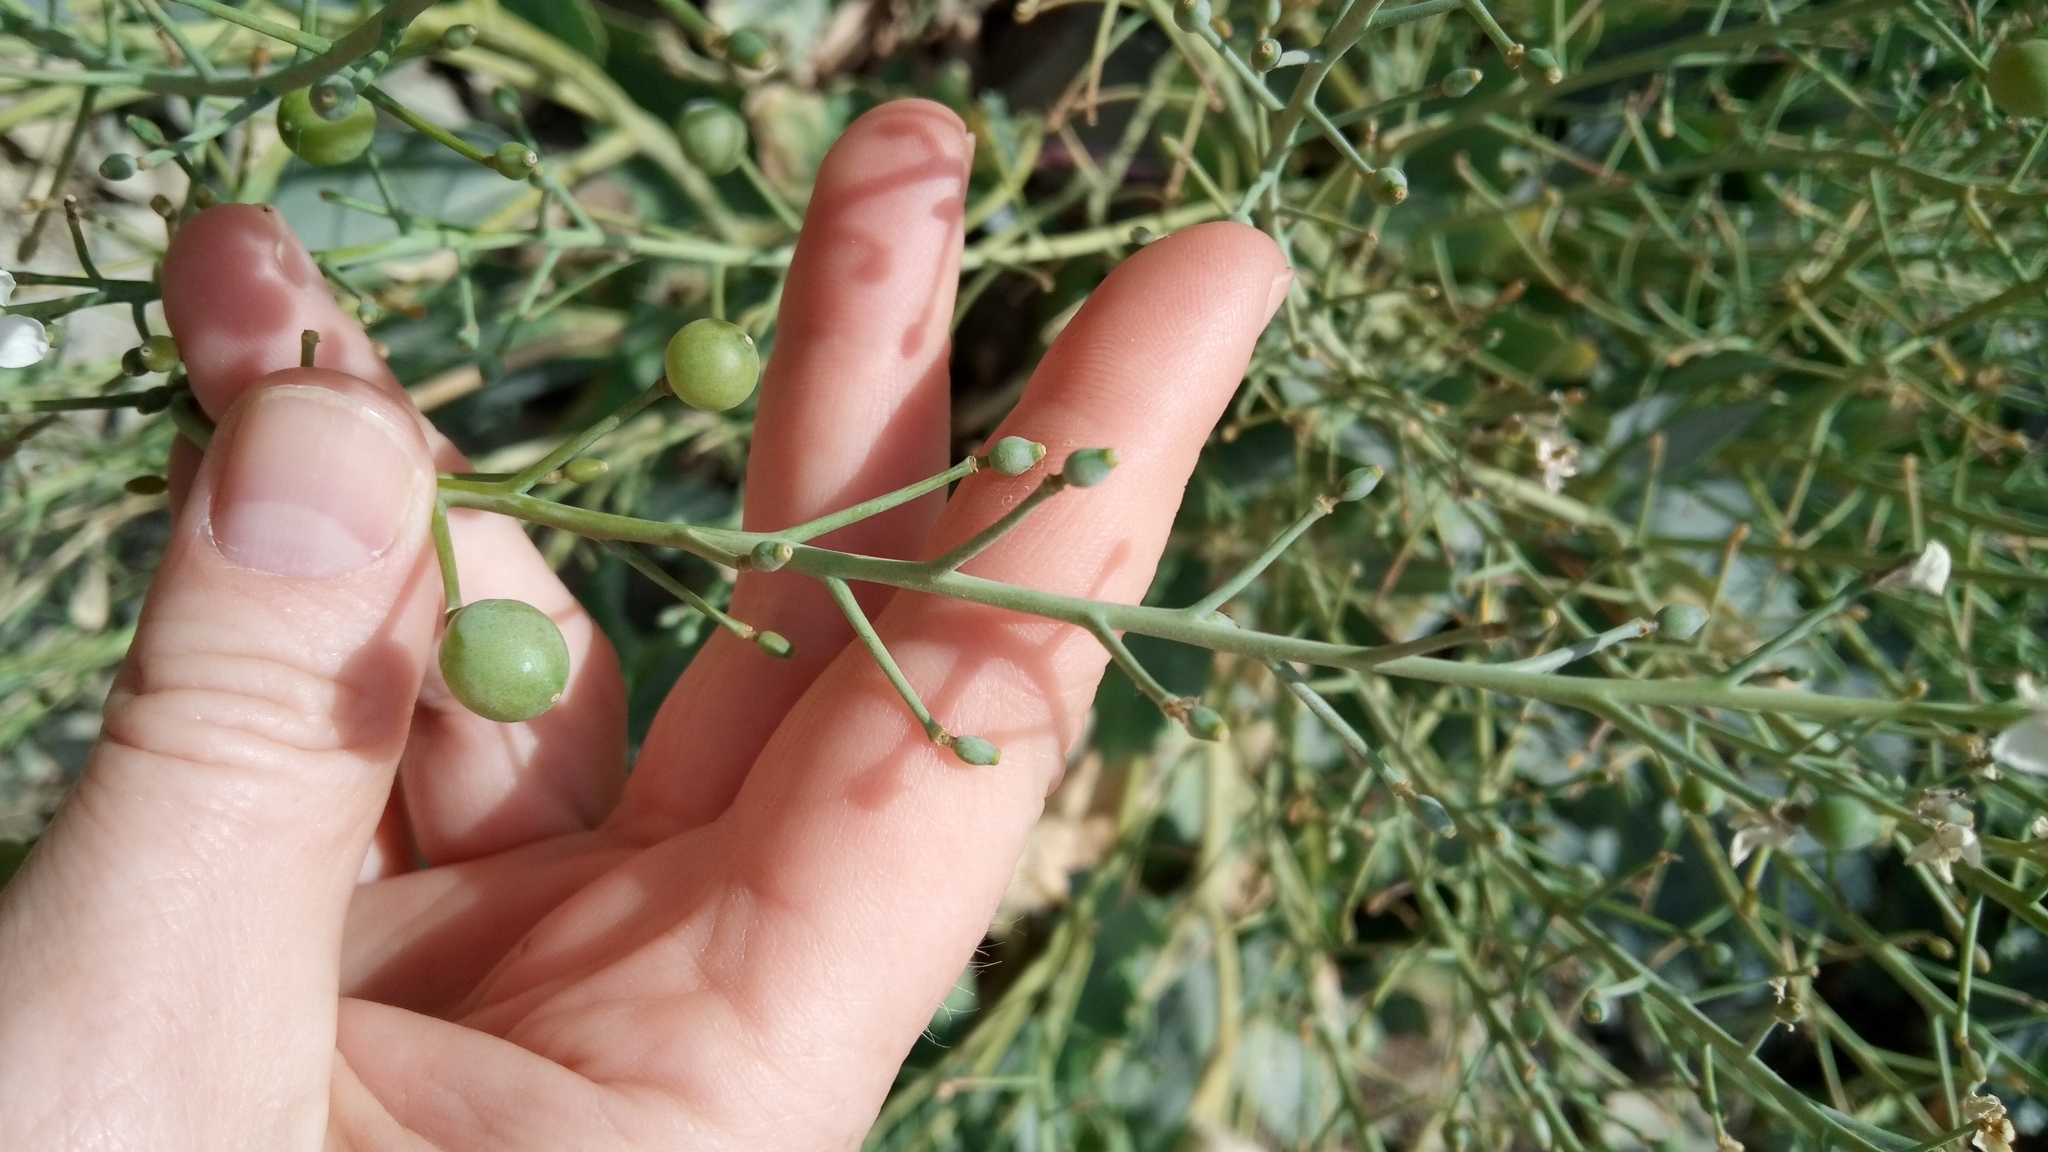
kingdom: Plantae
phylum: Tracheophyta
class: Magnoliopsida
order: Brassicales
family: Brassicaceae
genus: Crambe
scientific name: Crambe maritima
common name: Sea-kale
